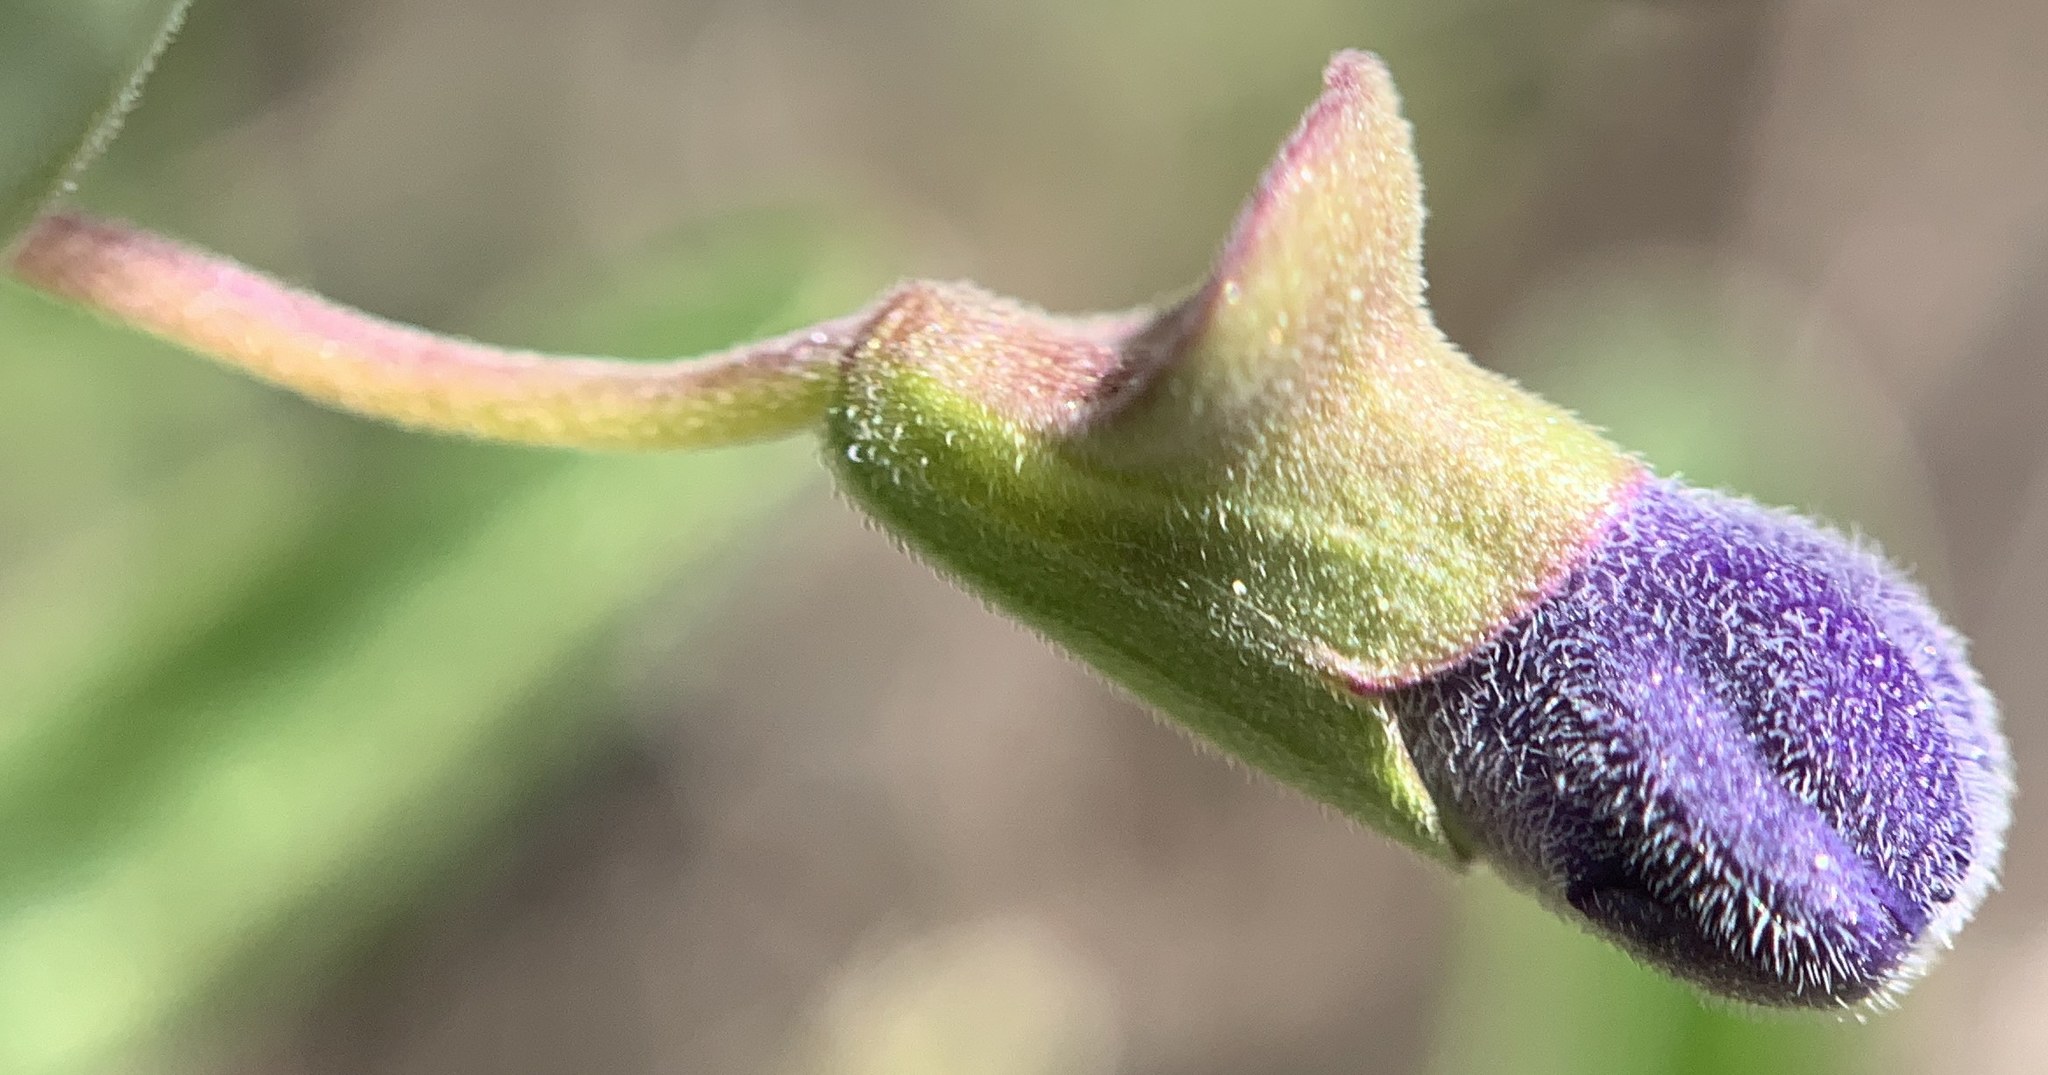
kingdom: Plantae
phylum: Tracheophyta
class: Magnoliopsida
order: Lamiales
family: Lamiaceae
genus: Scutellaria
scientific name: Scutellaria angustifolia
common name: Narrow-leaved skullcap
